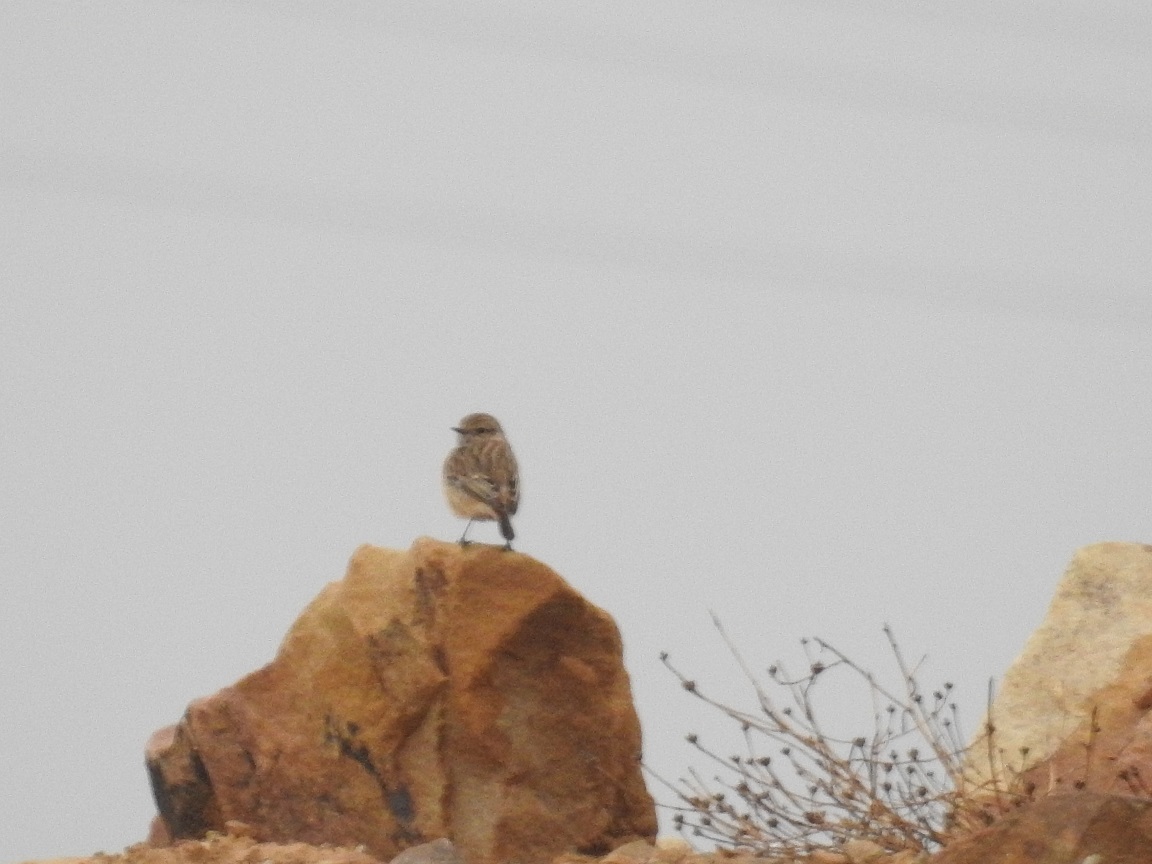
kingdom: Animalia
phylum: Chordata
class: Aves
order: Passeriformes
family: Muscicapidae
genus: Saxicola
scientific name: Saxicola rubicola
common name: European stonechat
